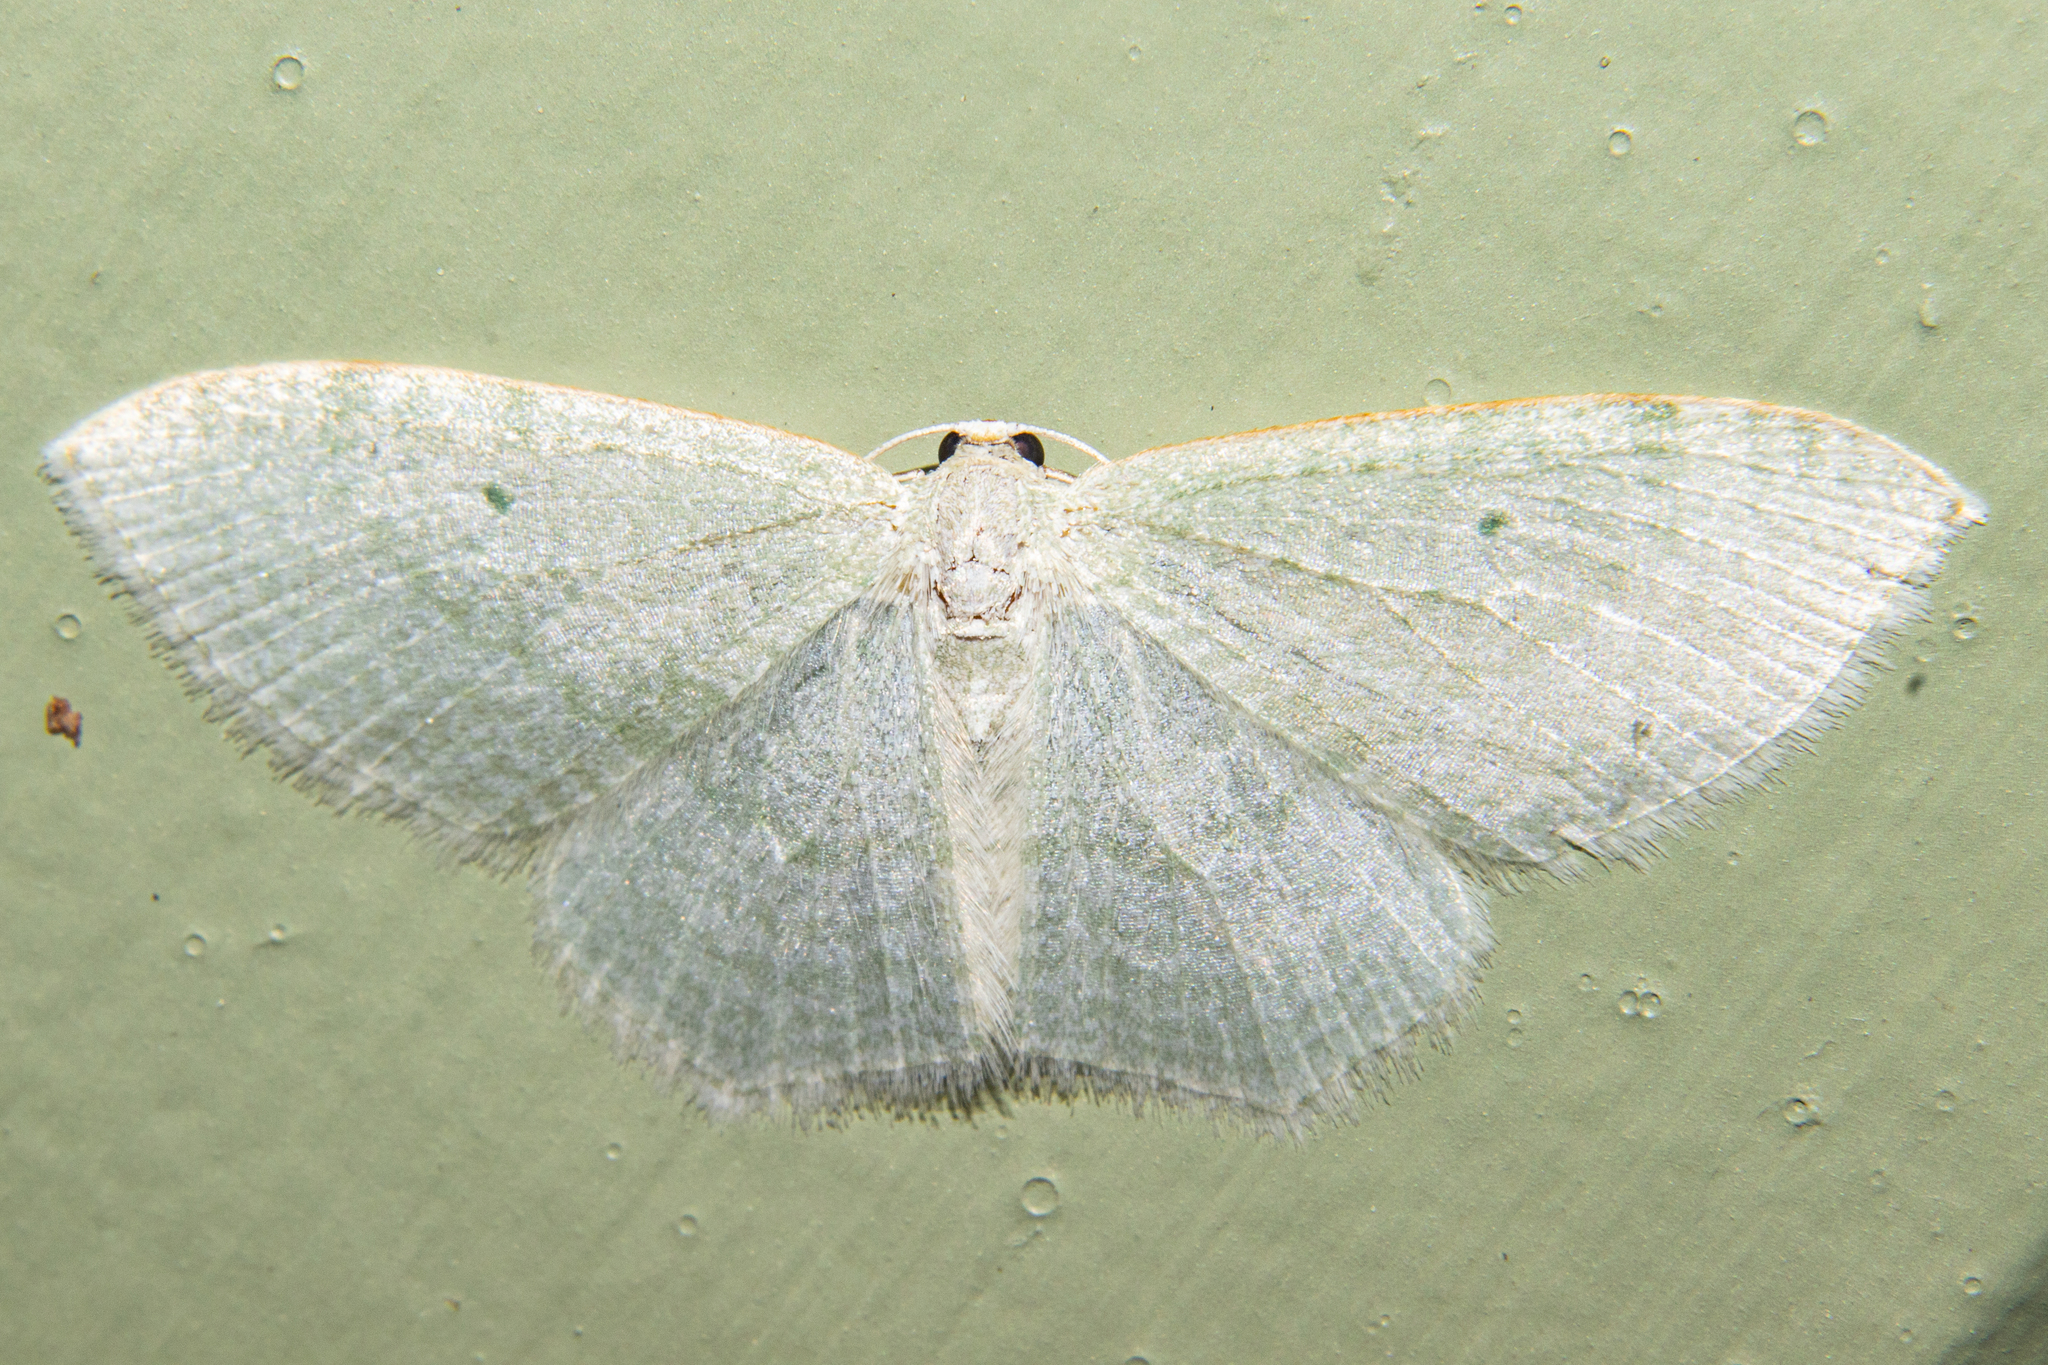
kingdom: Animalia
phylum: Arthropoda
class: Insecta
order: Lepidoptera
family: Geometridae
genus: Poecilasthena
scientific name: Poecilasthena pulchraria
